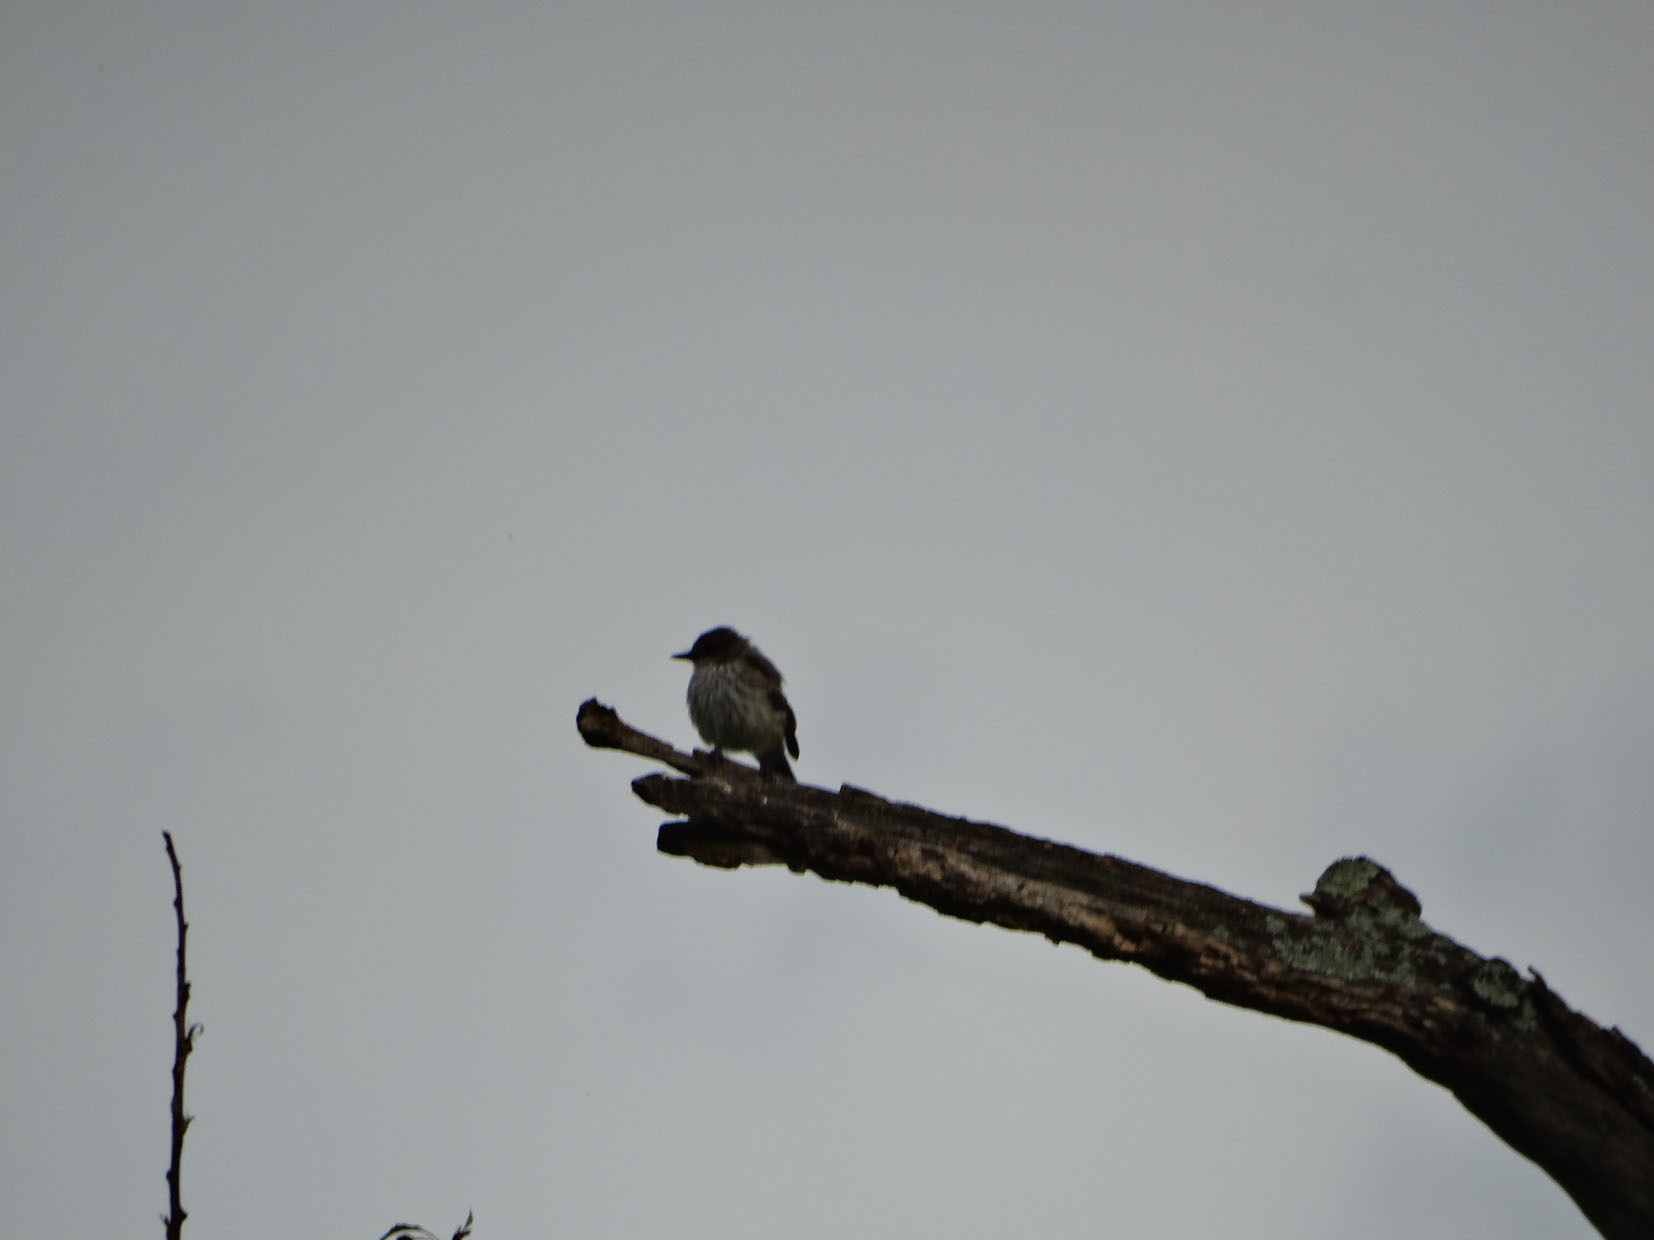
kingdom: Animalia
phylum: Chordata
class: Aves
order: Passeriformes
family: Tyrannidae
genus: Pyrocephalus
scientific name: Pyrocephalus rubinus
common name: Vermilion flycatcher
